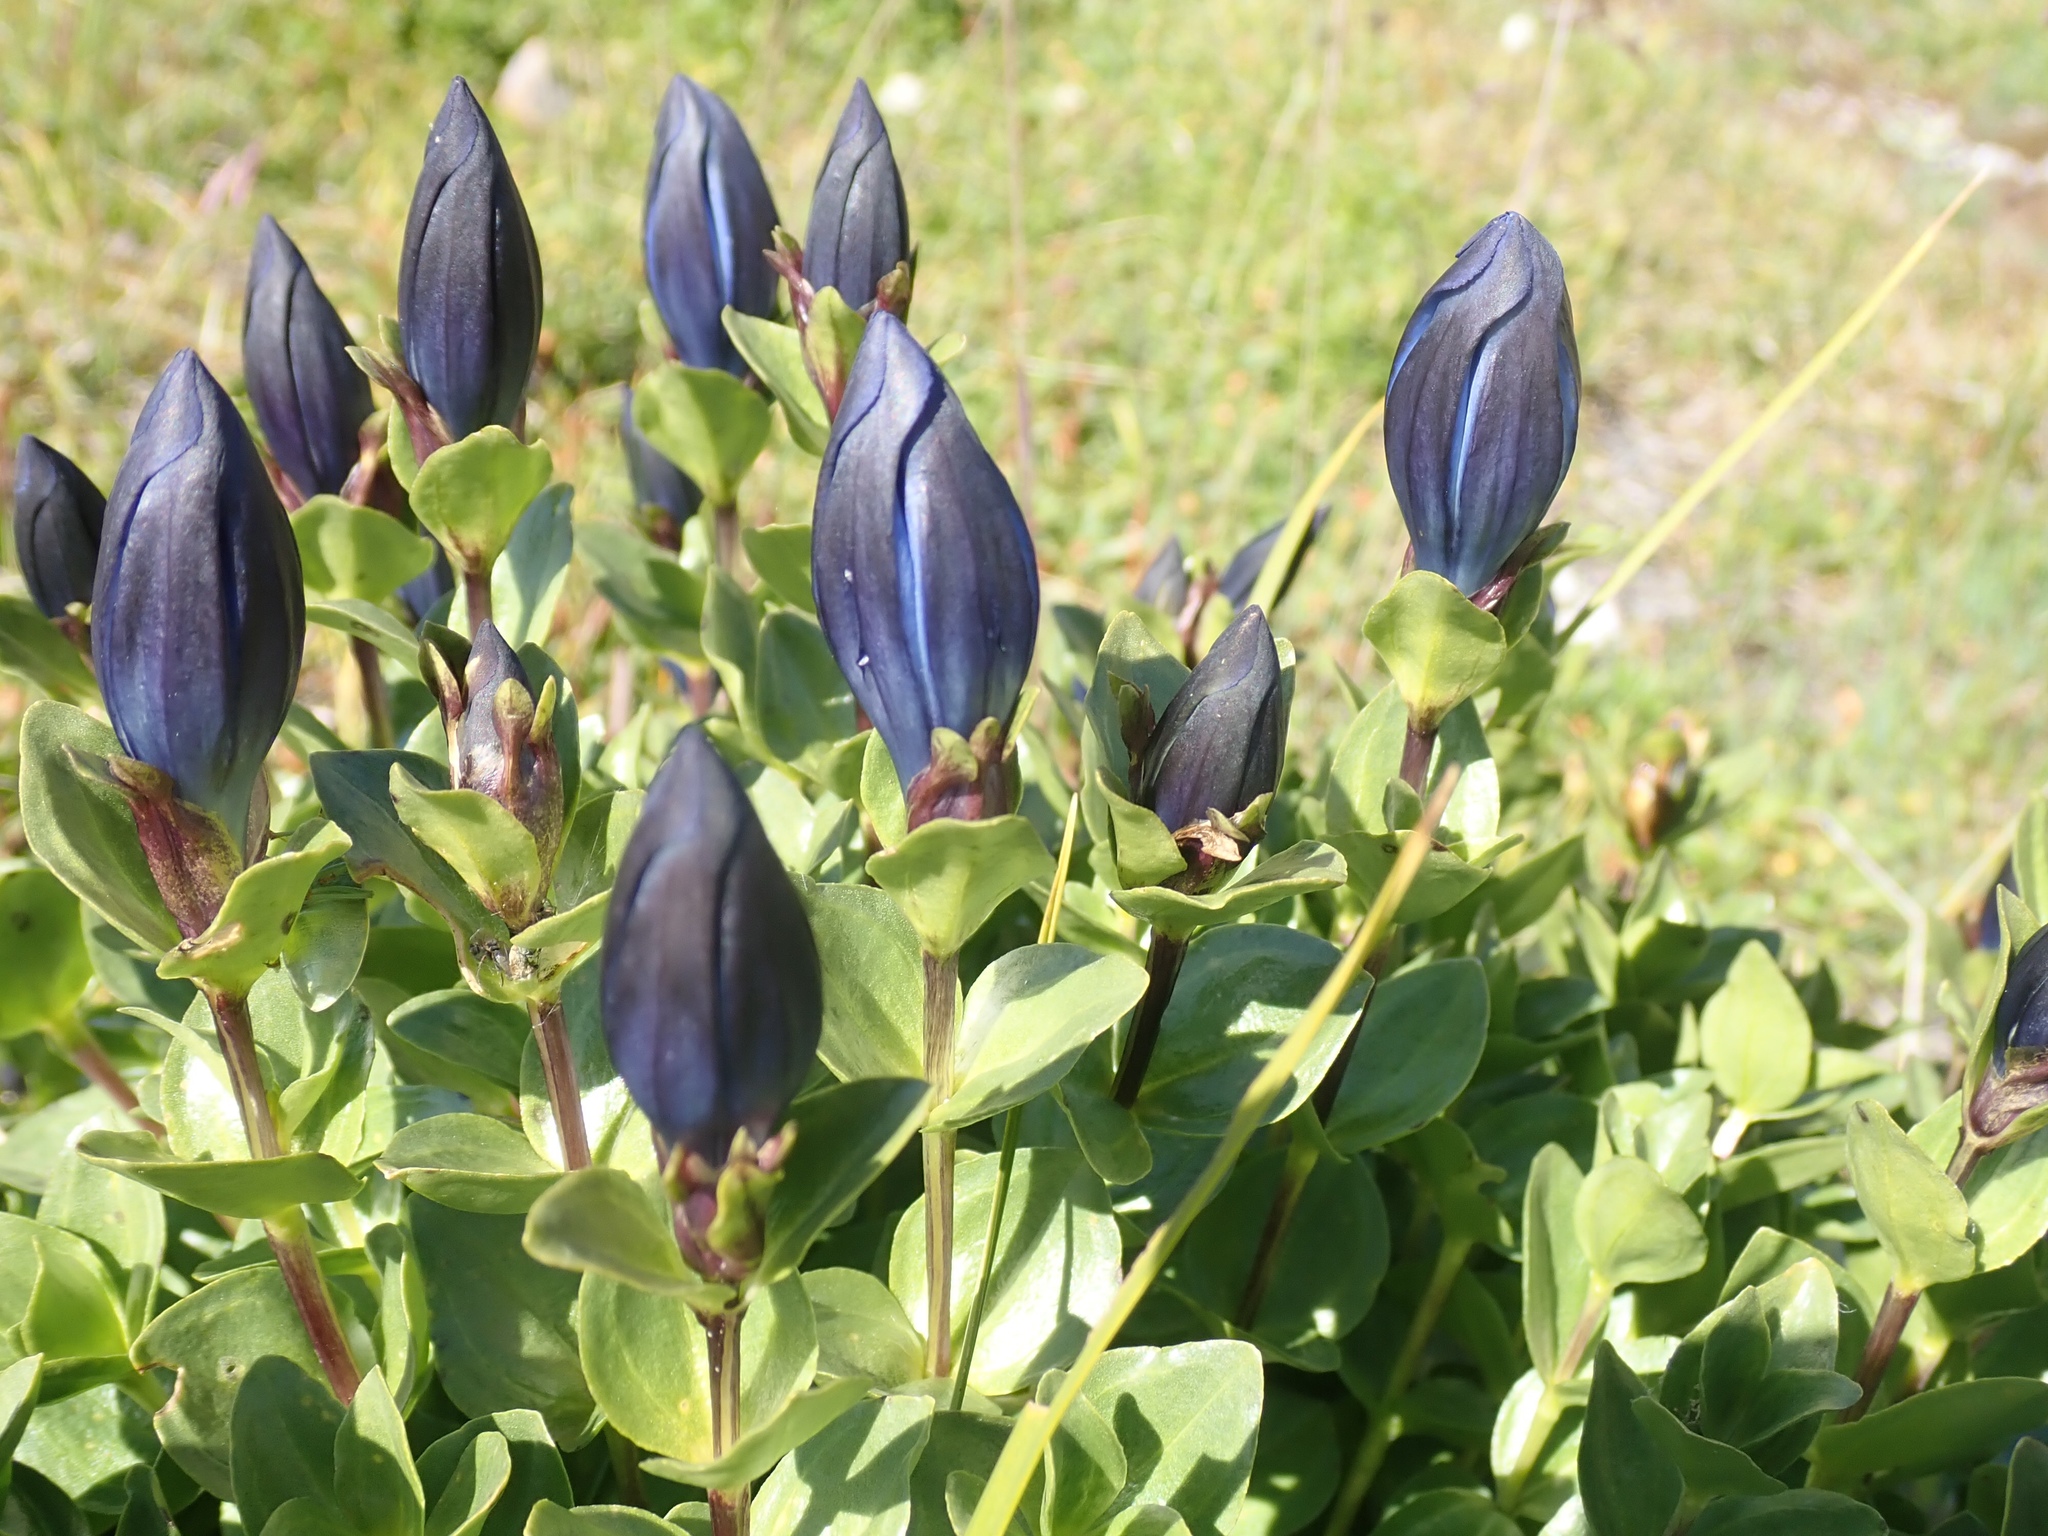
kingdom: Plantae
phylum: Tracheophyta
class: Magnoliopsida
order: Gentianales
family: Gentianaceae
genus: Gentiana
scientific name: Gentiana calycosa
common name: Rainier pleated gentian
